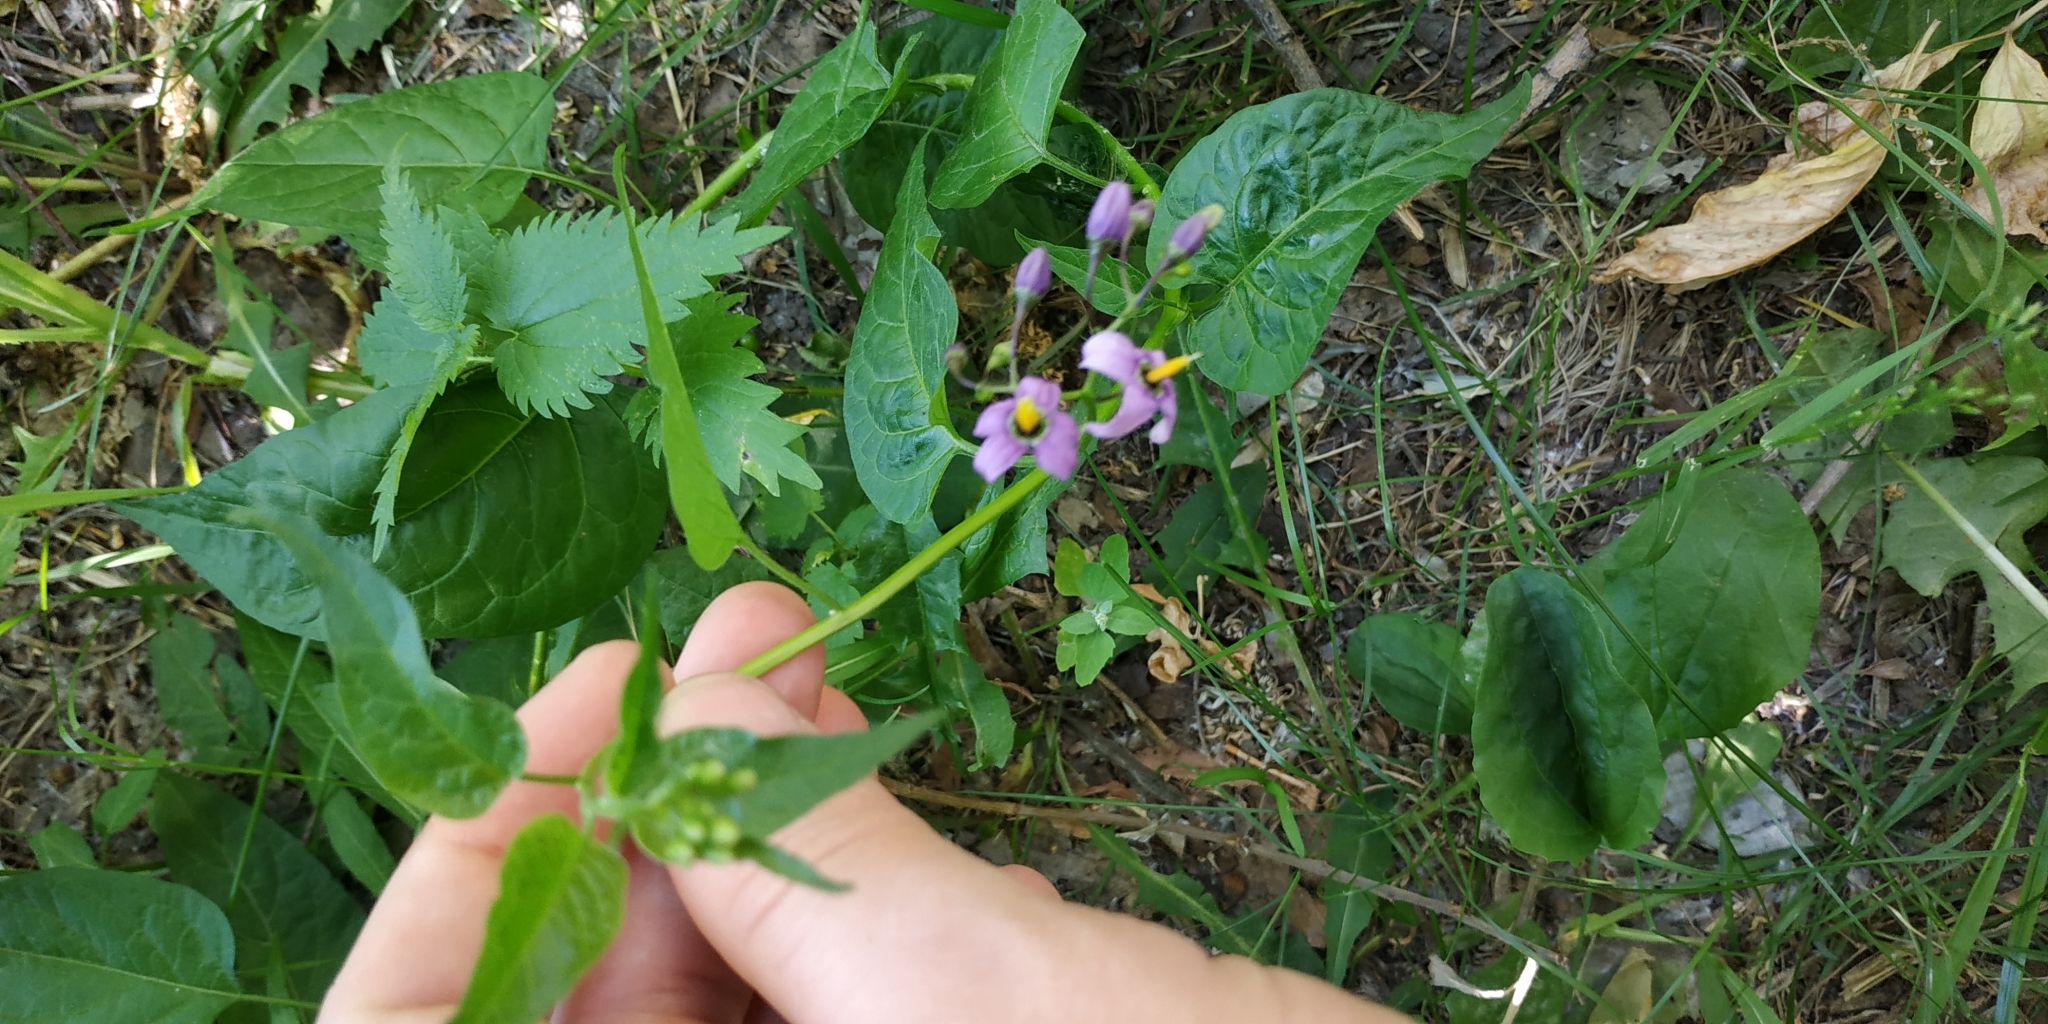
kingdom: Plantae
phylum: Tracheophyta
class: Magnoliopsida
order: Solanales
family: Solanaceae
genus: Solanum
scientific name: Solanum dulcamara
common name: Climbing nightshade
